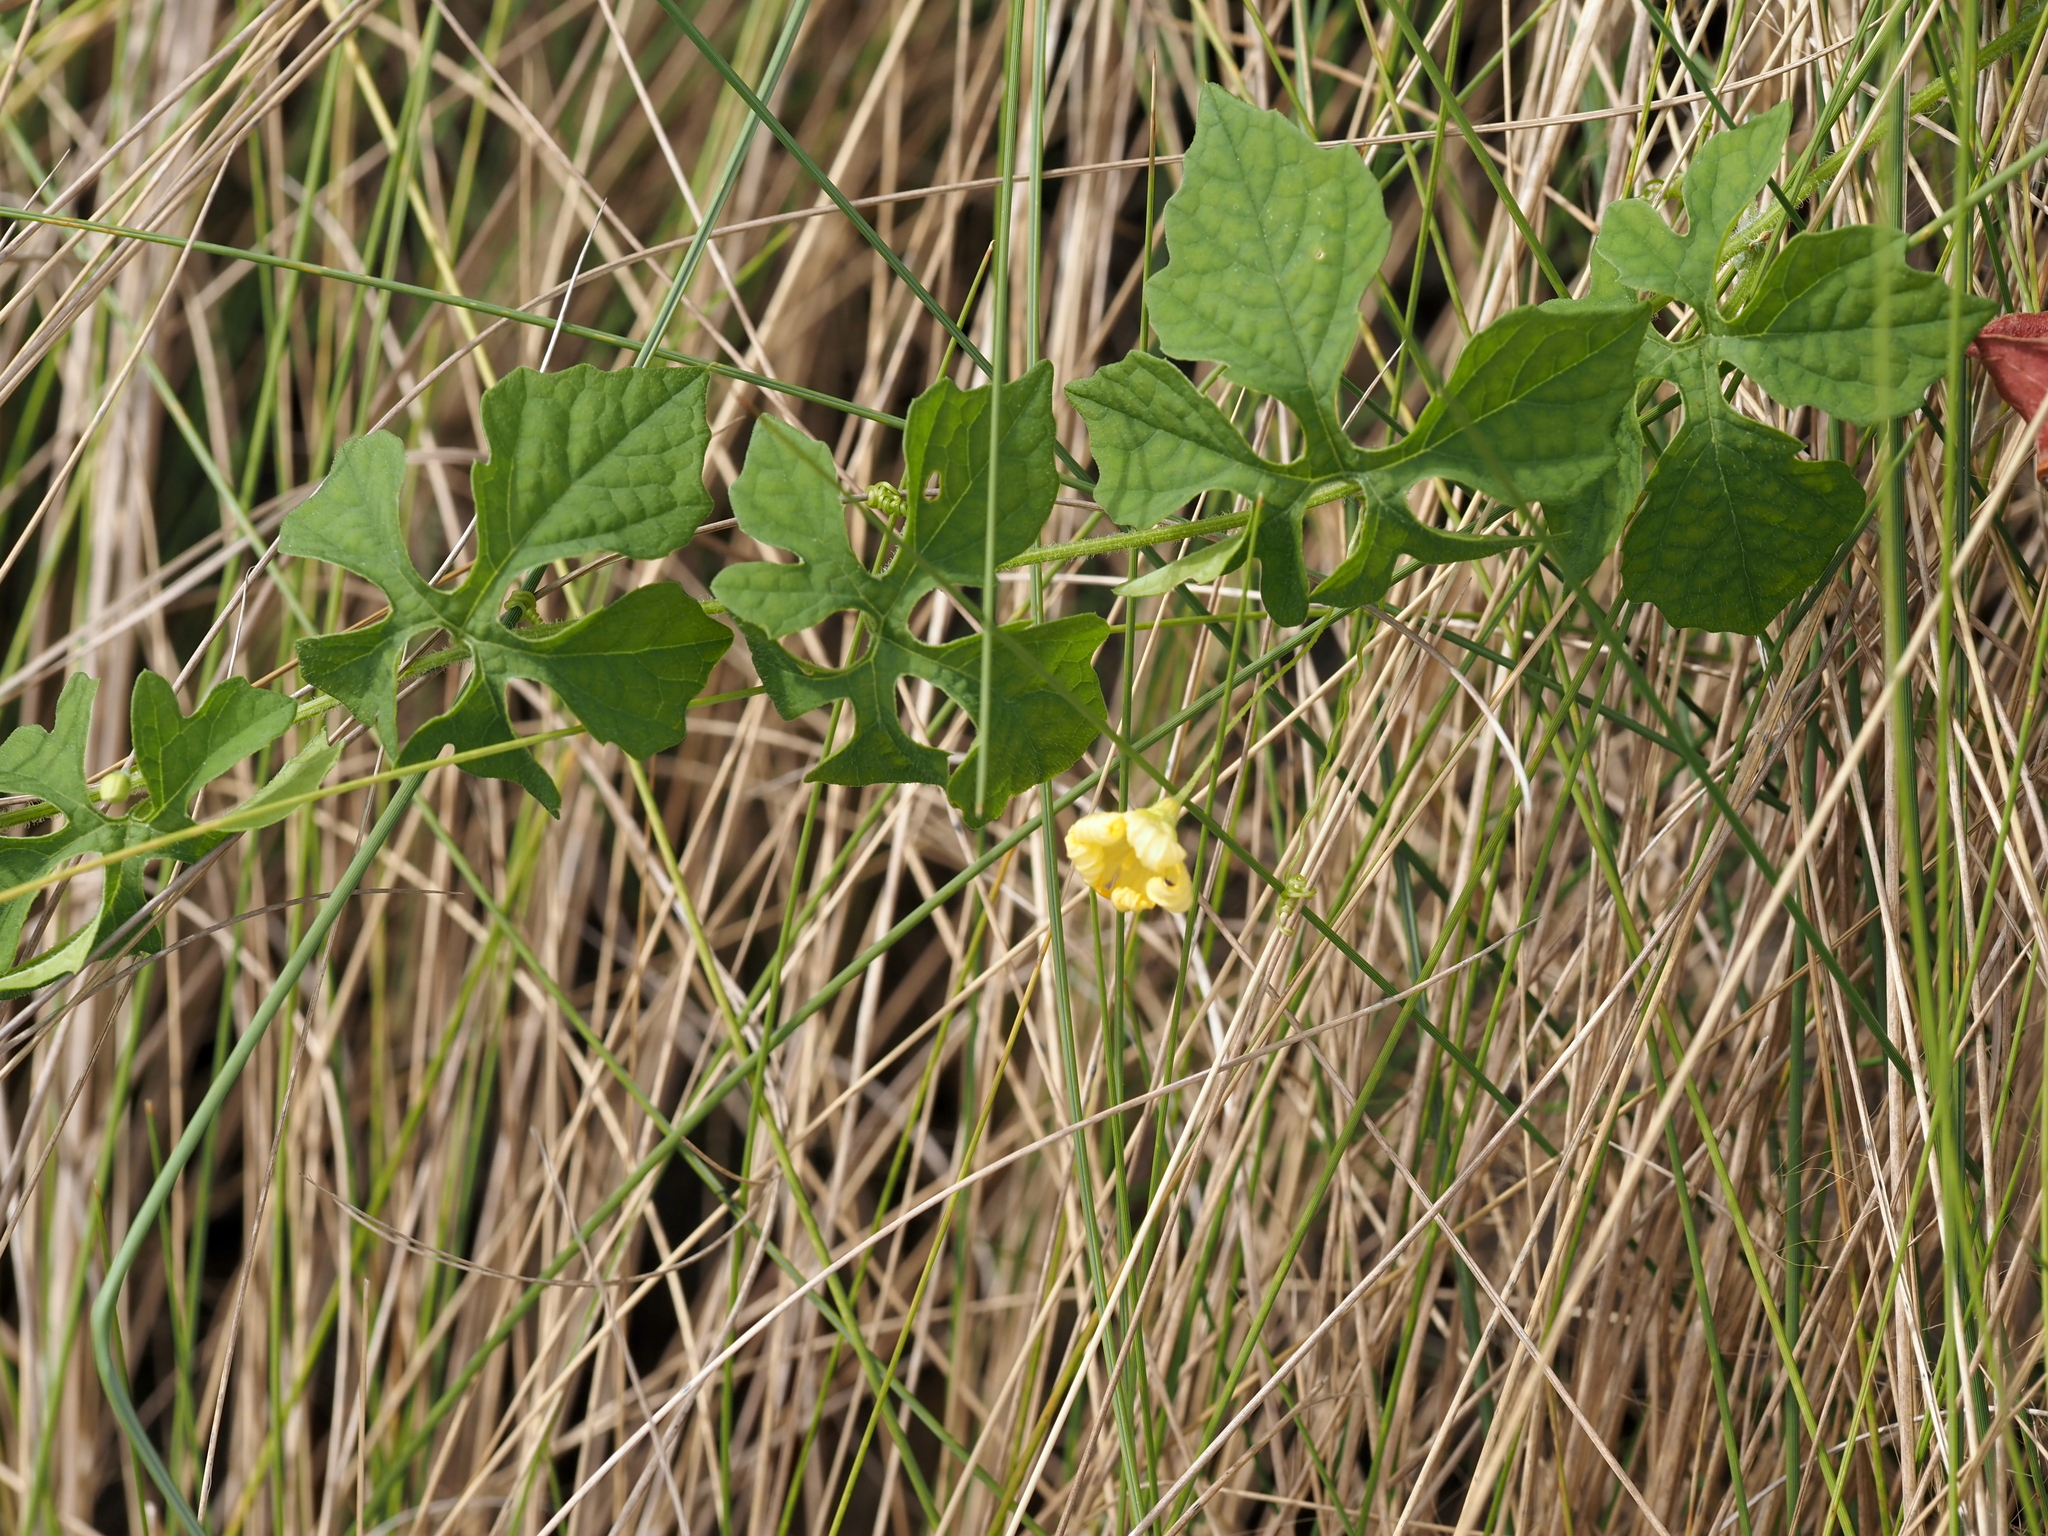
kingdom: Plantae
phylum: Tracheophyta
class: Magnoliopsida
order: Cucurbitales
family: Cucurbitaceae
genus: Momordica
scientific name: Momordica charantia
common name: Balsampear
